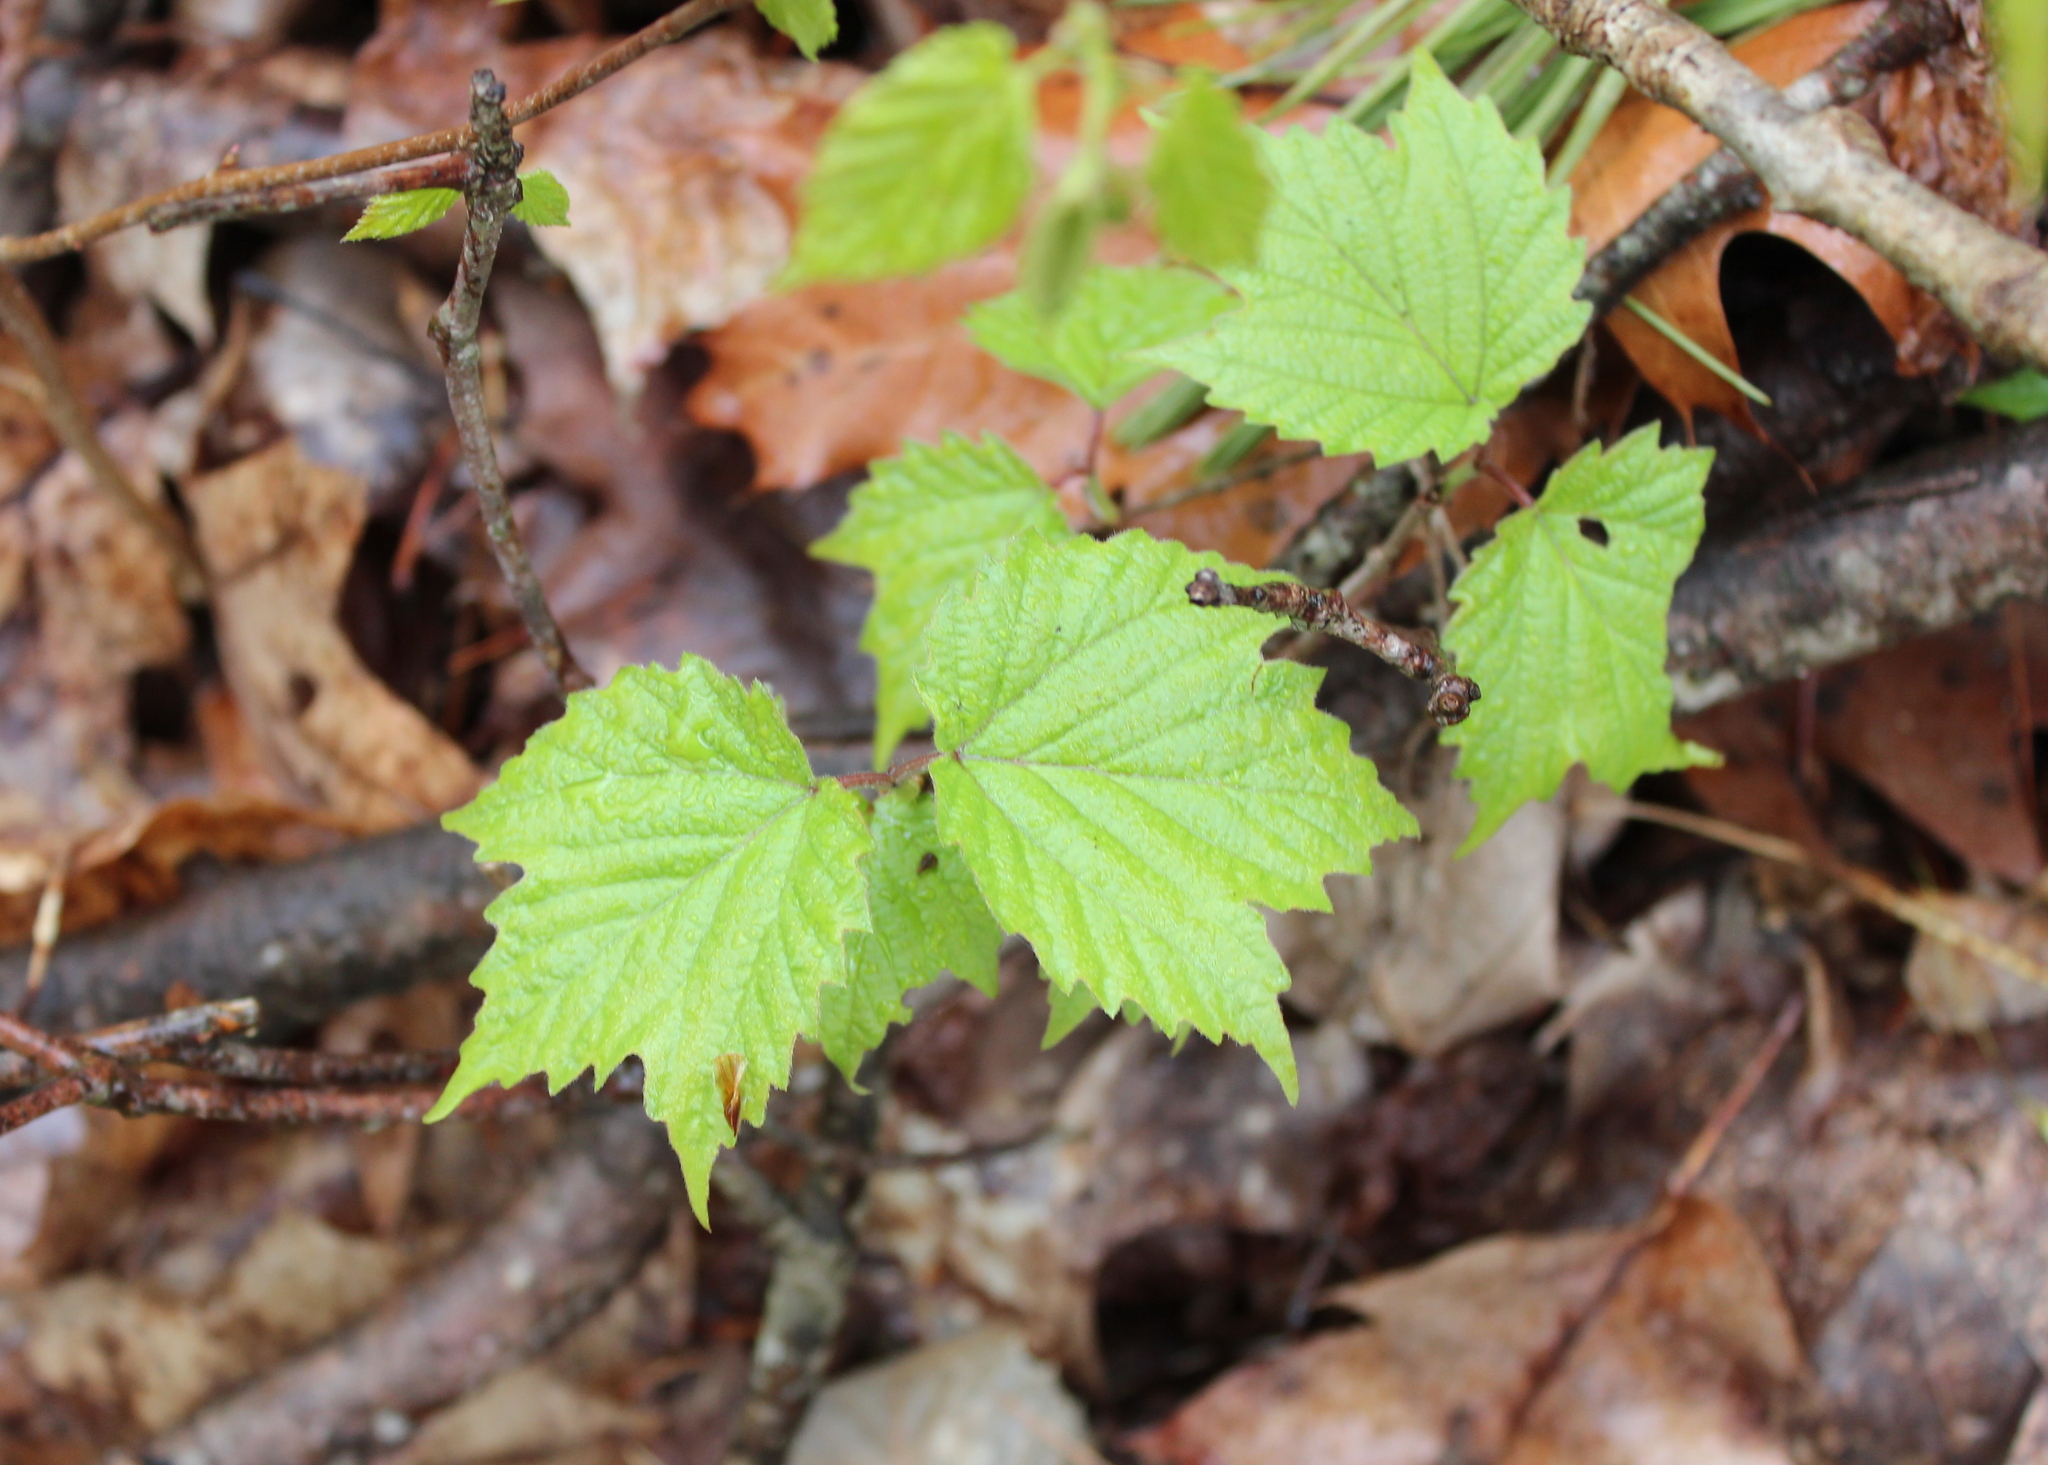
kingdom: Plantae
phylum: Tracheophyta
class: Magnoliopsida
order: Dipsacales
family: Viburnaceae
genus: Viburnum
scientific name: Viburnum acerifolium
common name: Dockmackie
